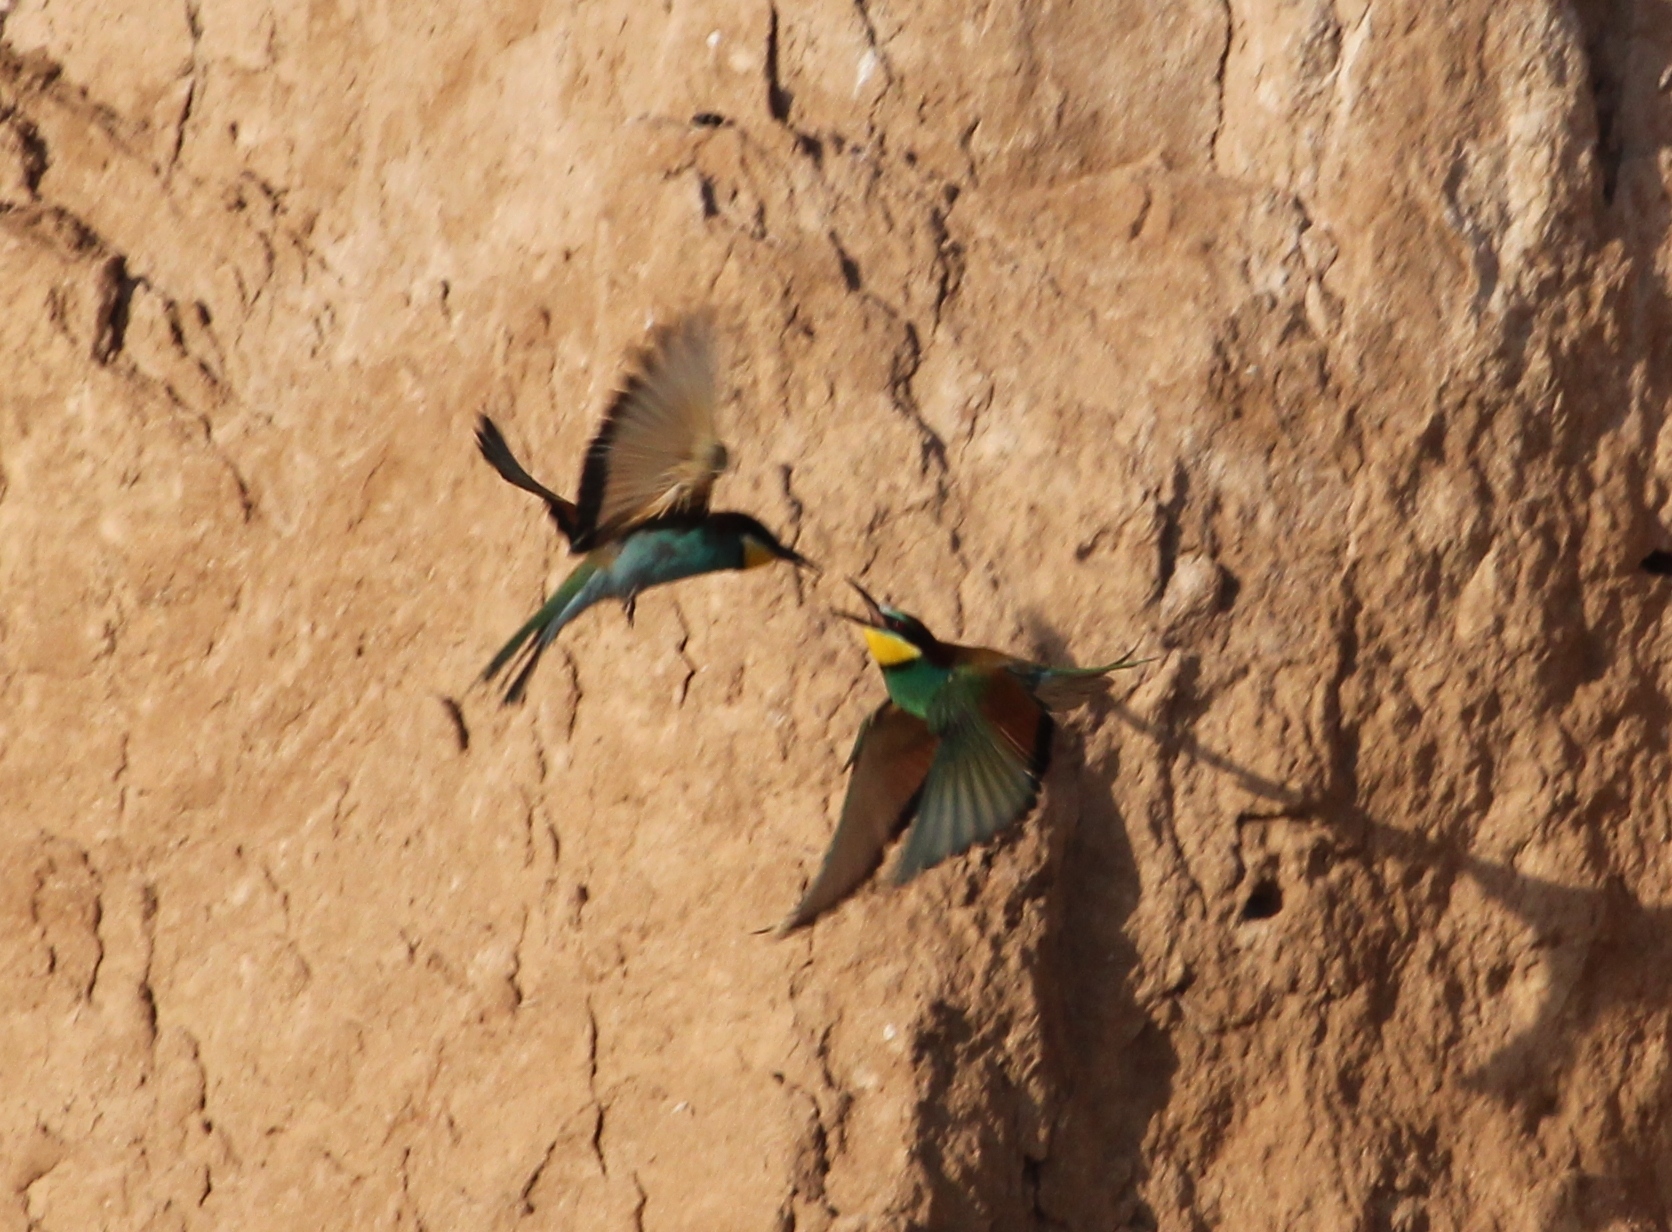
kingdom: Animalia
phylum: Chordata
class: Aves
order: Coraciiformes
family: Meropidae
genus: Merops
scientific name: Merops apiaster
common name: European bee-eater
